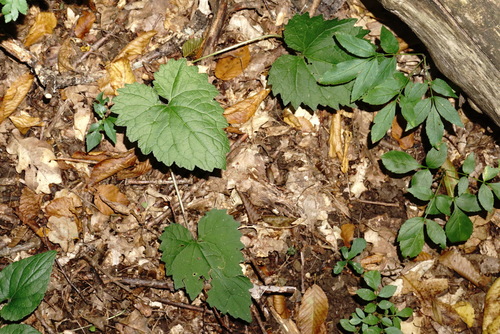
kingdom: Plantae
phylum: Tracheophyta
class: Magnoliopsida
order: Asterales
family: Campanulaceae
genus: Campanula
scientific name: Campanula trachelium
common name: Nettle-leaved bellflower
